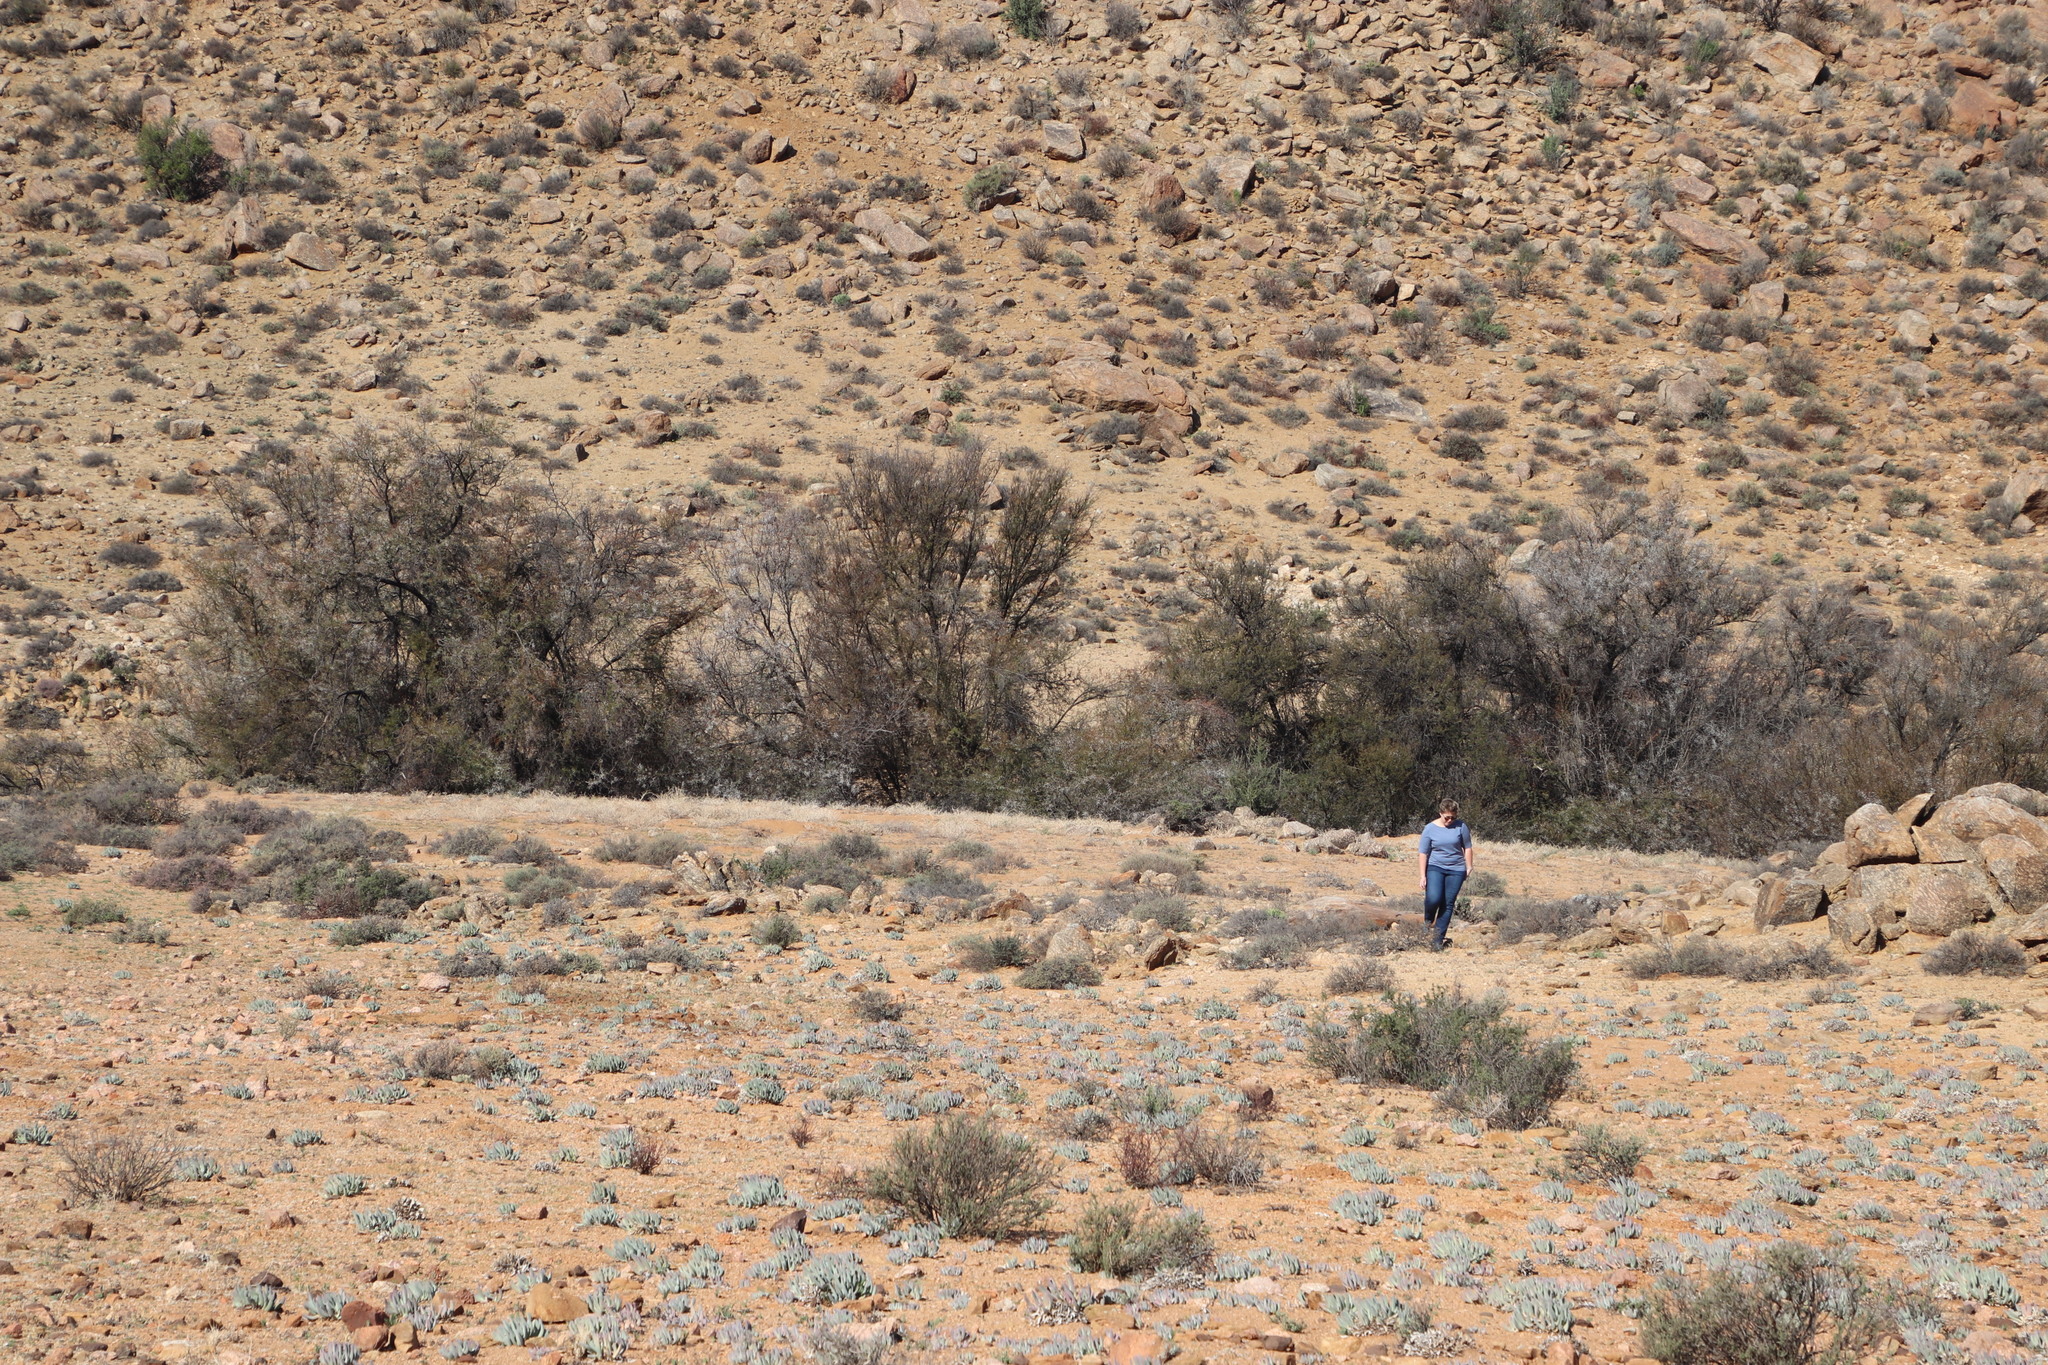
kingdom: Plantae
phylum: Tracheophyta
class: Magnoliopsida
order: Fabales
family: Fabaceae
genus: Vachellia
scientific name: Vachellia karroo
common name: Sweet thorn
